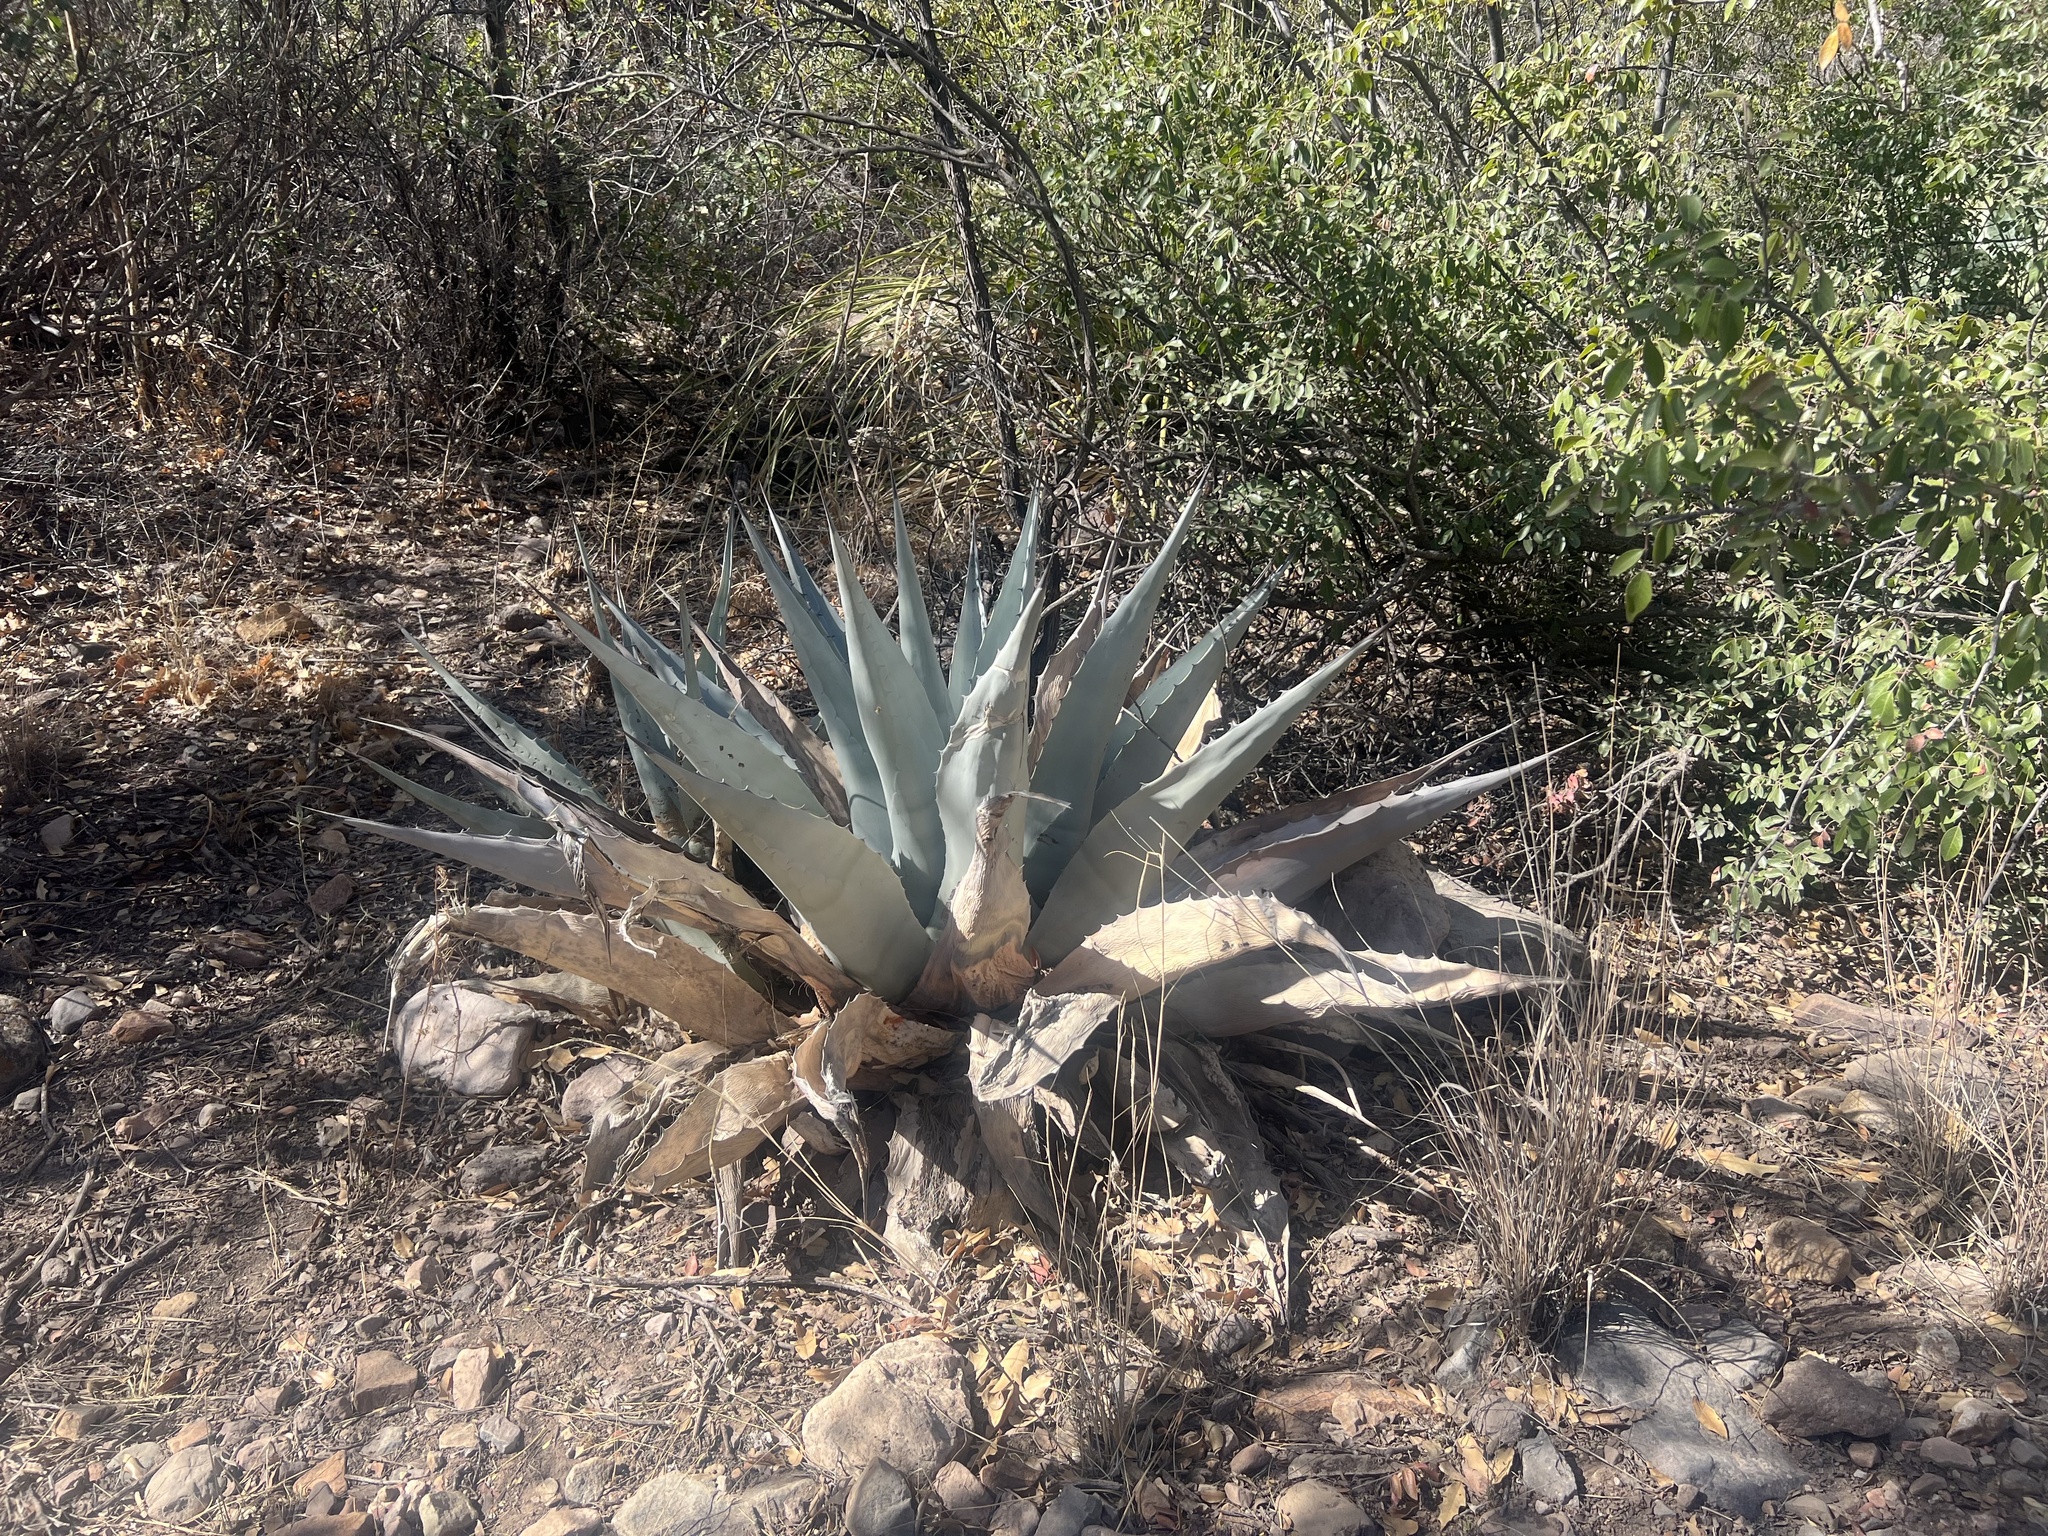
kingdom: Plantae
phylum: Tracheophyta
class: Liliopsida
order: Asparagales
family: Asparagaceae
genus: Agave
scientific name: Agave havardiana
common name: Havard agave
